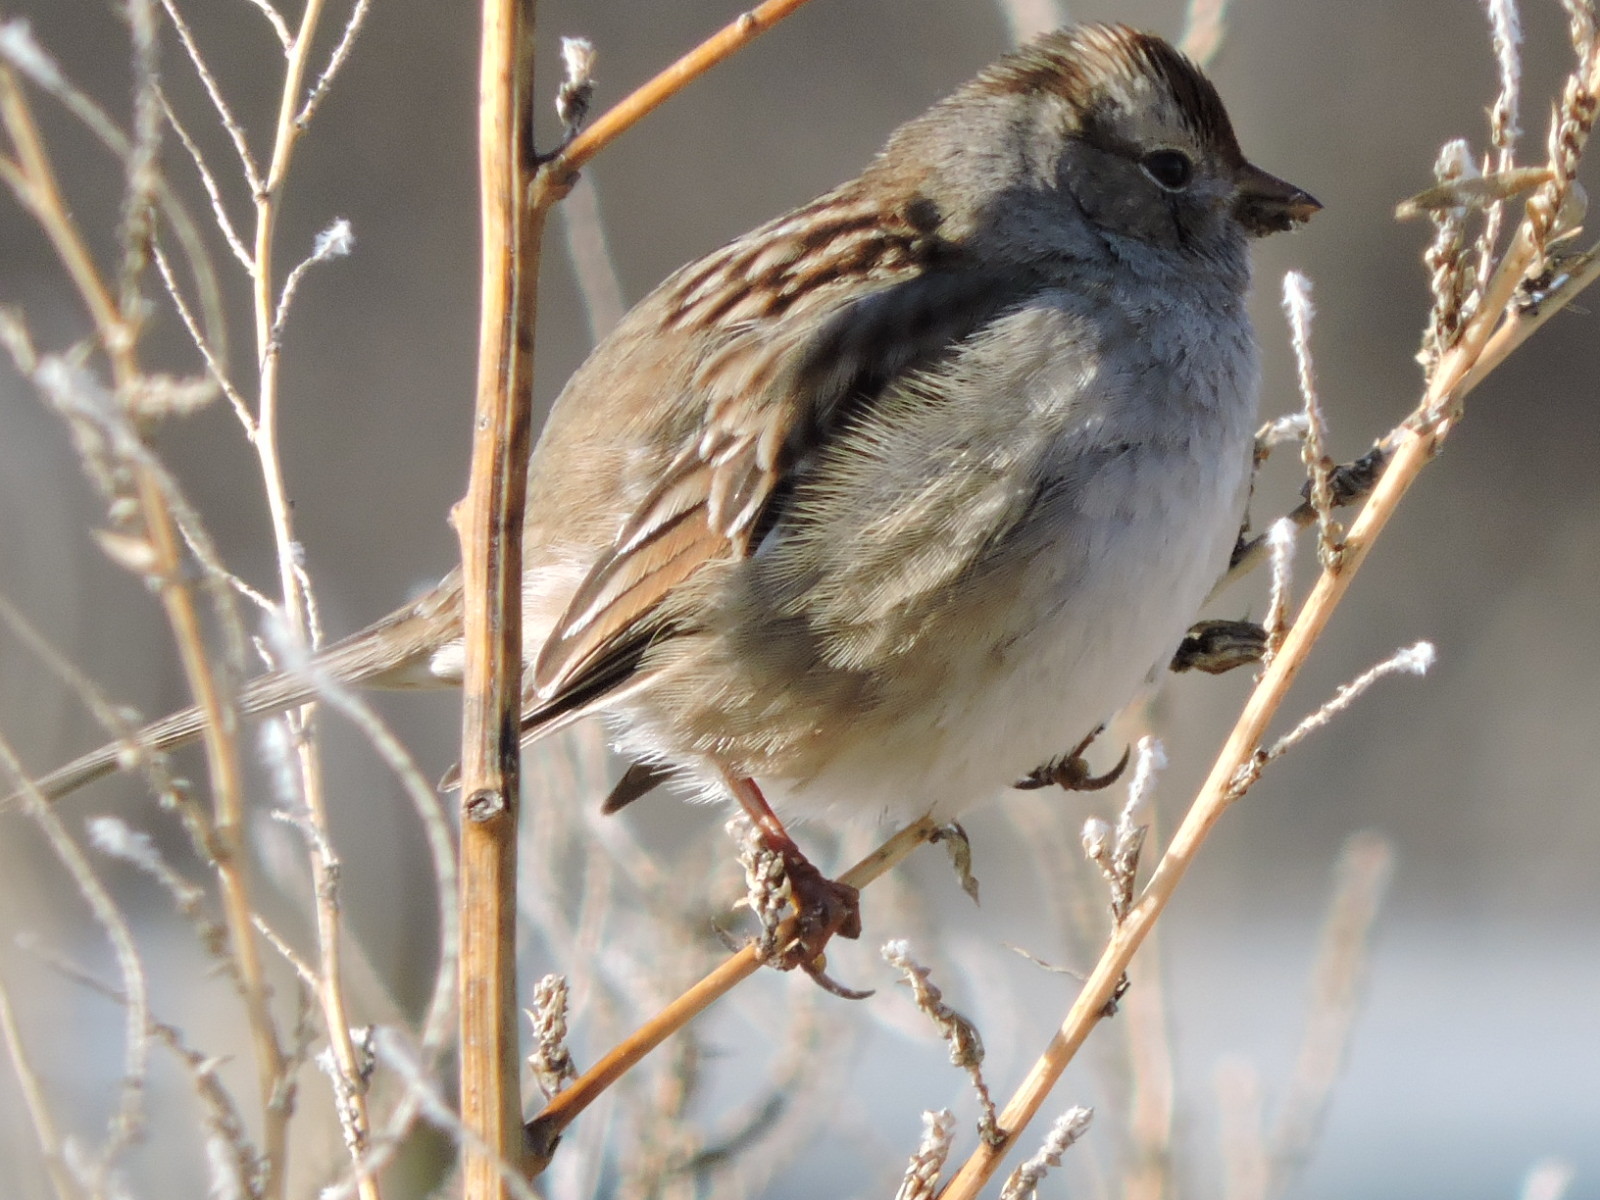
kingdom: Animalia
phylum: Chordata
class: Aves
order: Passeriformes
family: Passerellidae
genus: Zonotrichia
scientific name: Zonotrichia leucophrys
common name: White-crowned sparrow
